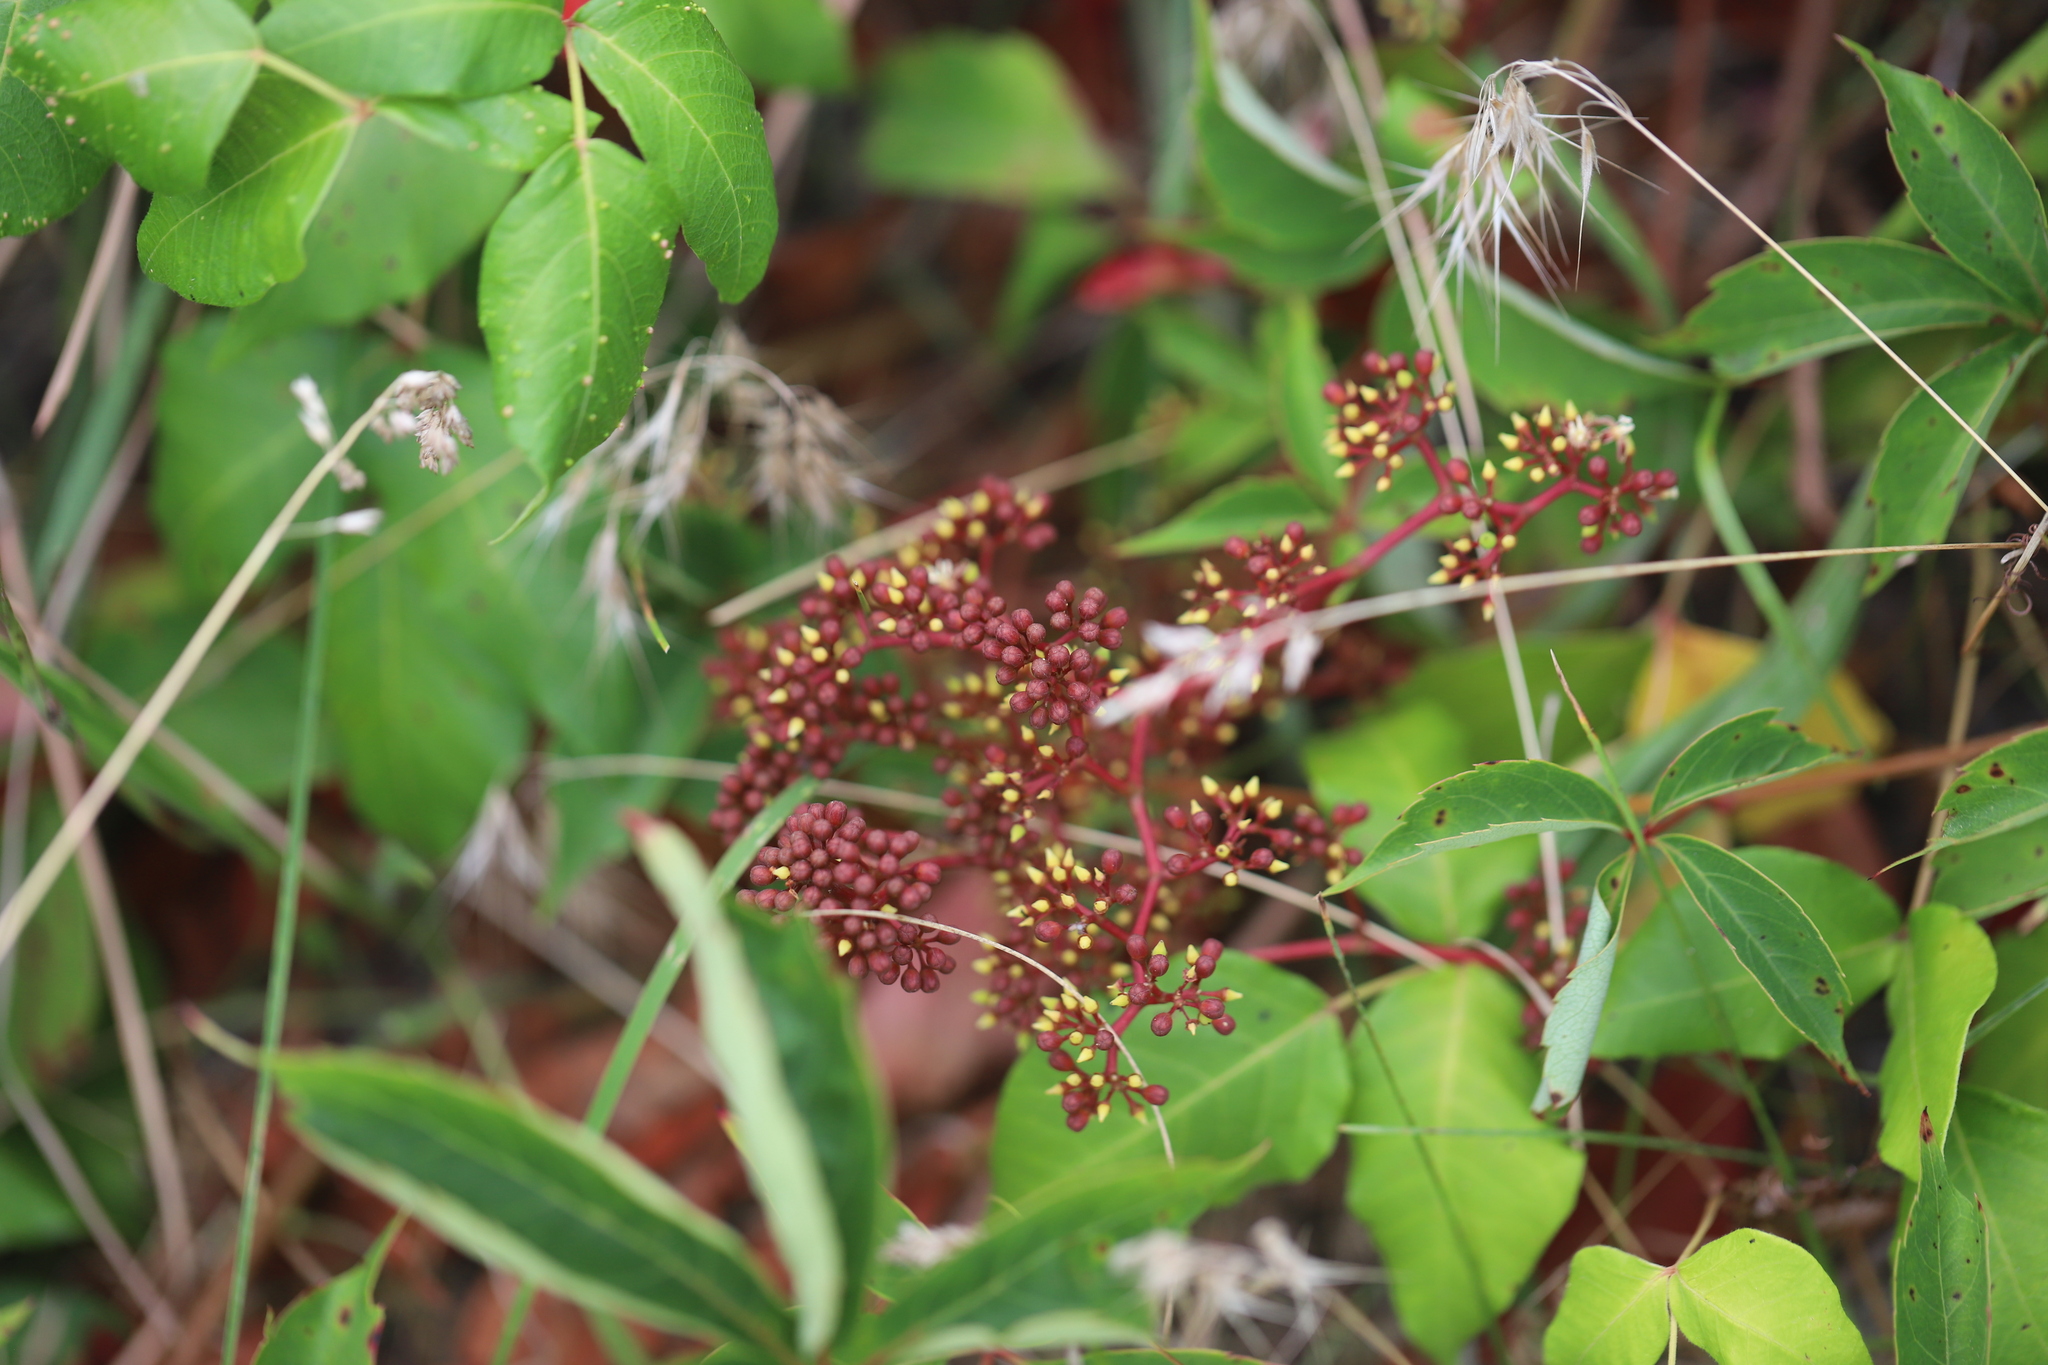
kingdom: Plantae
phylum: Tracheophyta
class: Magnoliopsida
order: Vitales
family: Vitaceae
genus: Parthenocissus
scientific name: Parthenocissus quinquefolia
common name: Virginia-creeper
